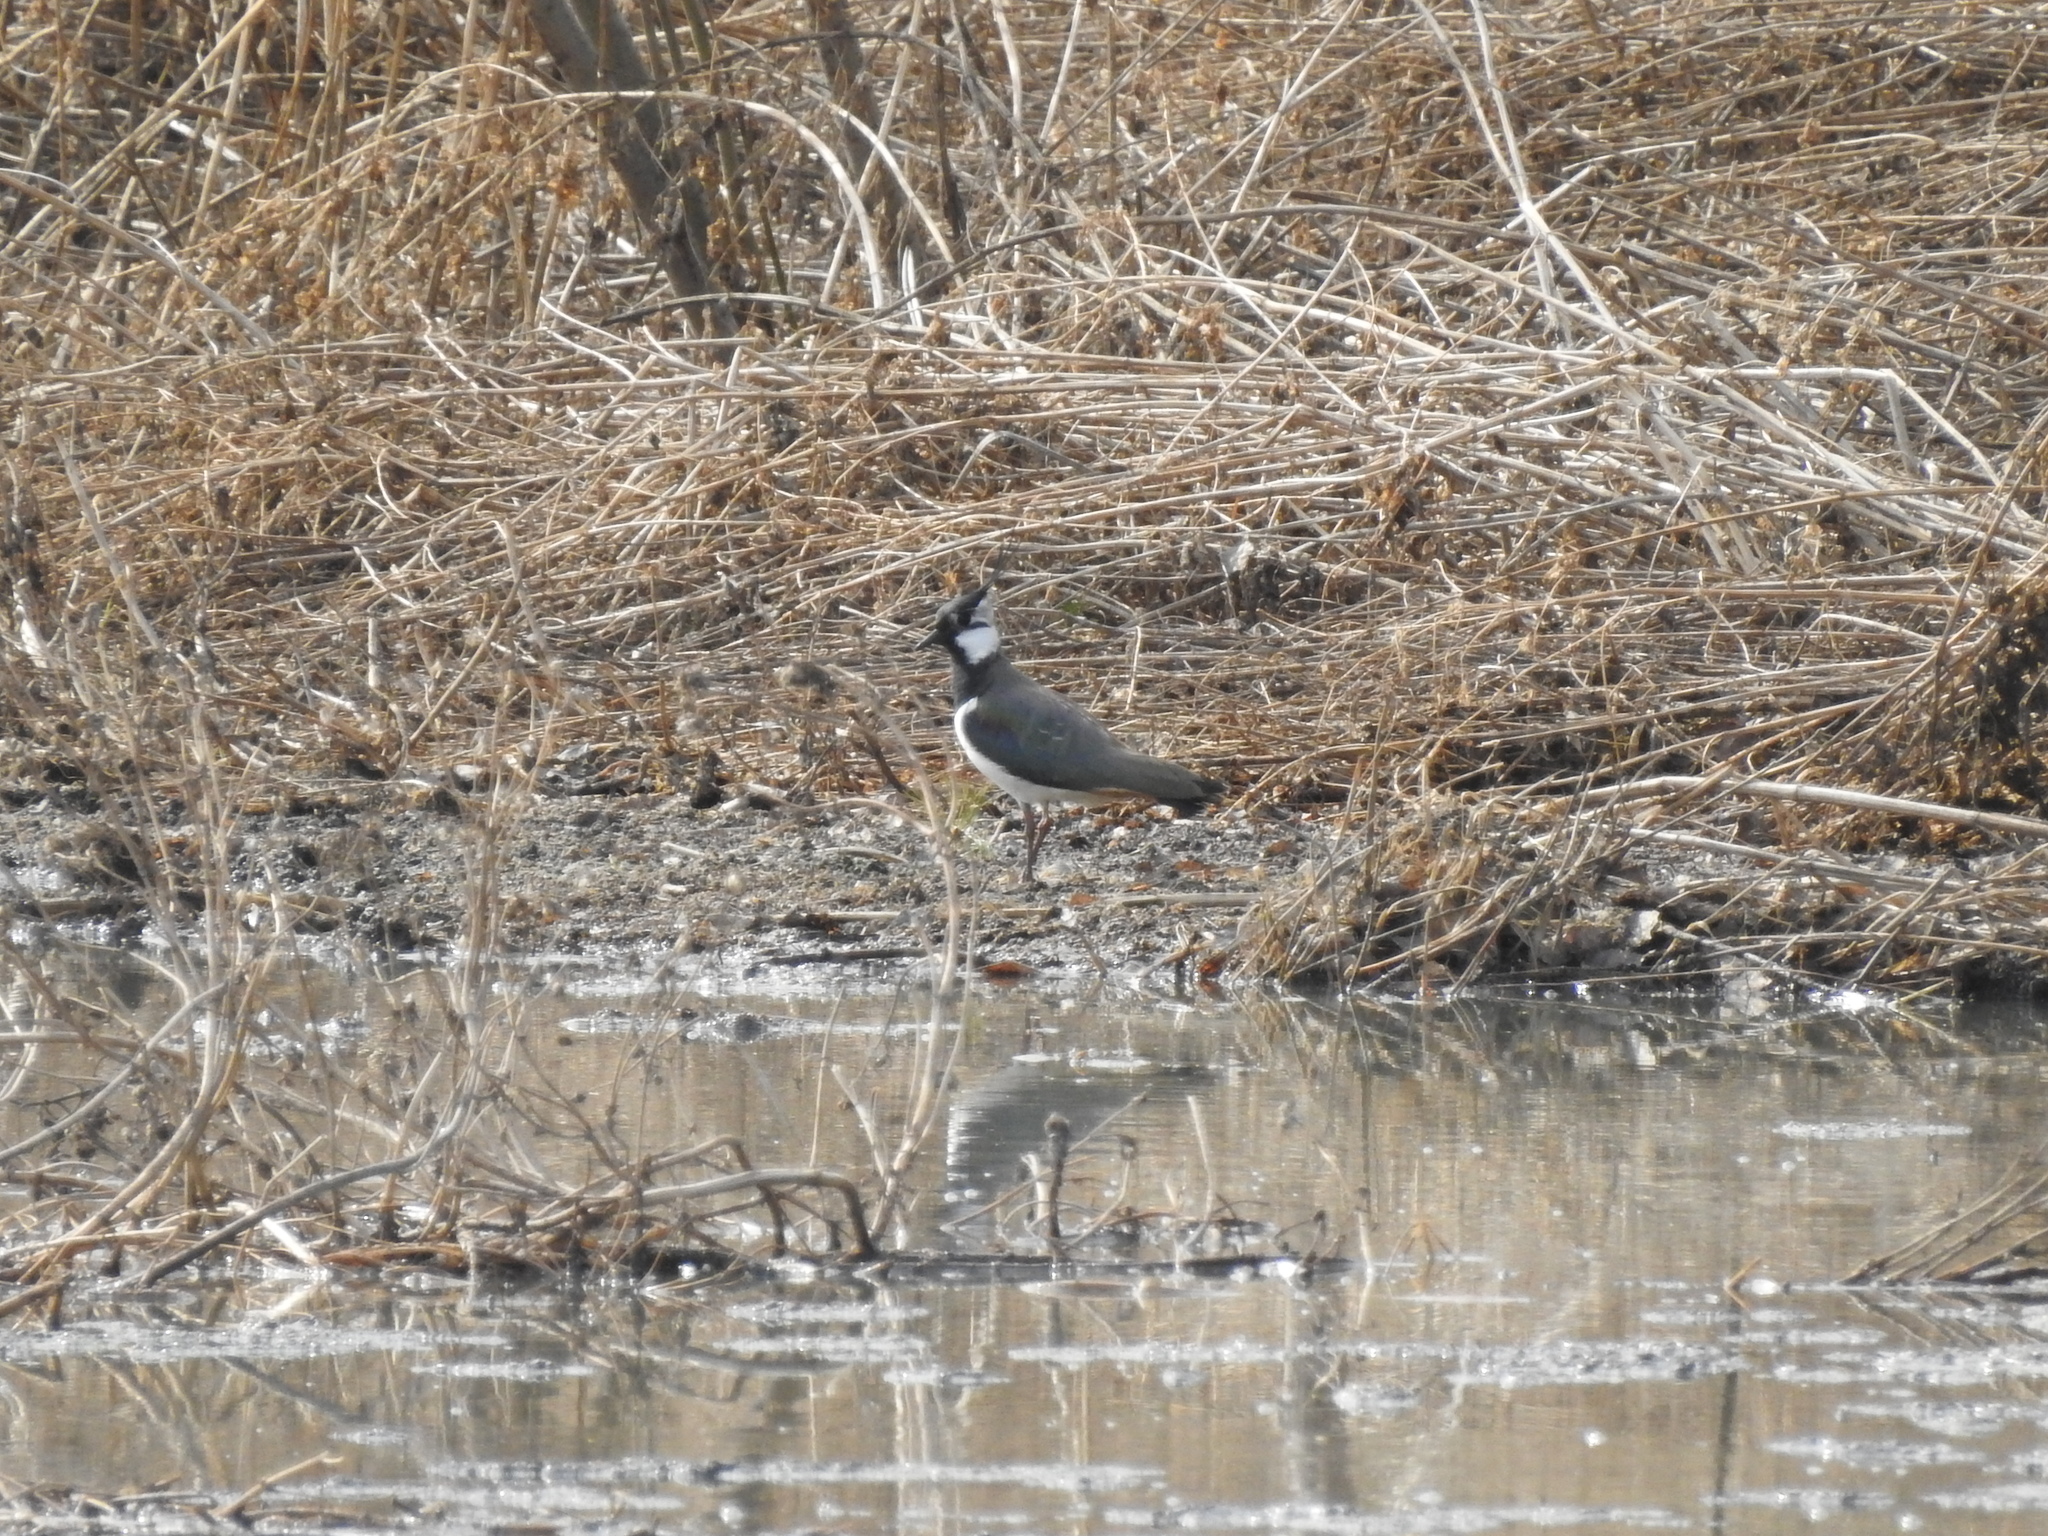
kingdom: Animalia
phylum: Chordata
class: Aves
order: Charadriiformes
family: Charadriidae
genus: Vanellus
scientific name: Vanellus vanellus
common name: Northern lapwing
